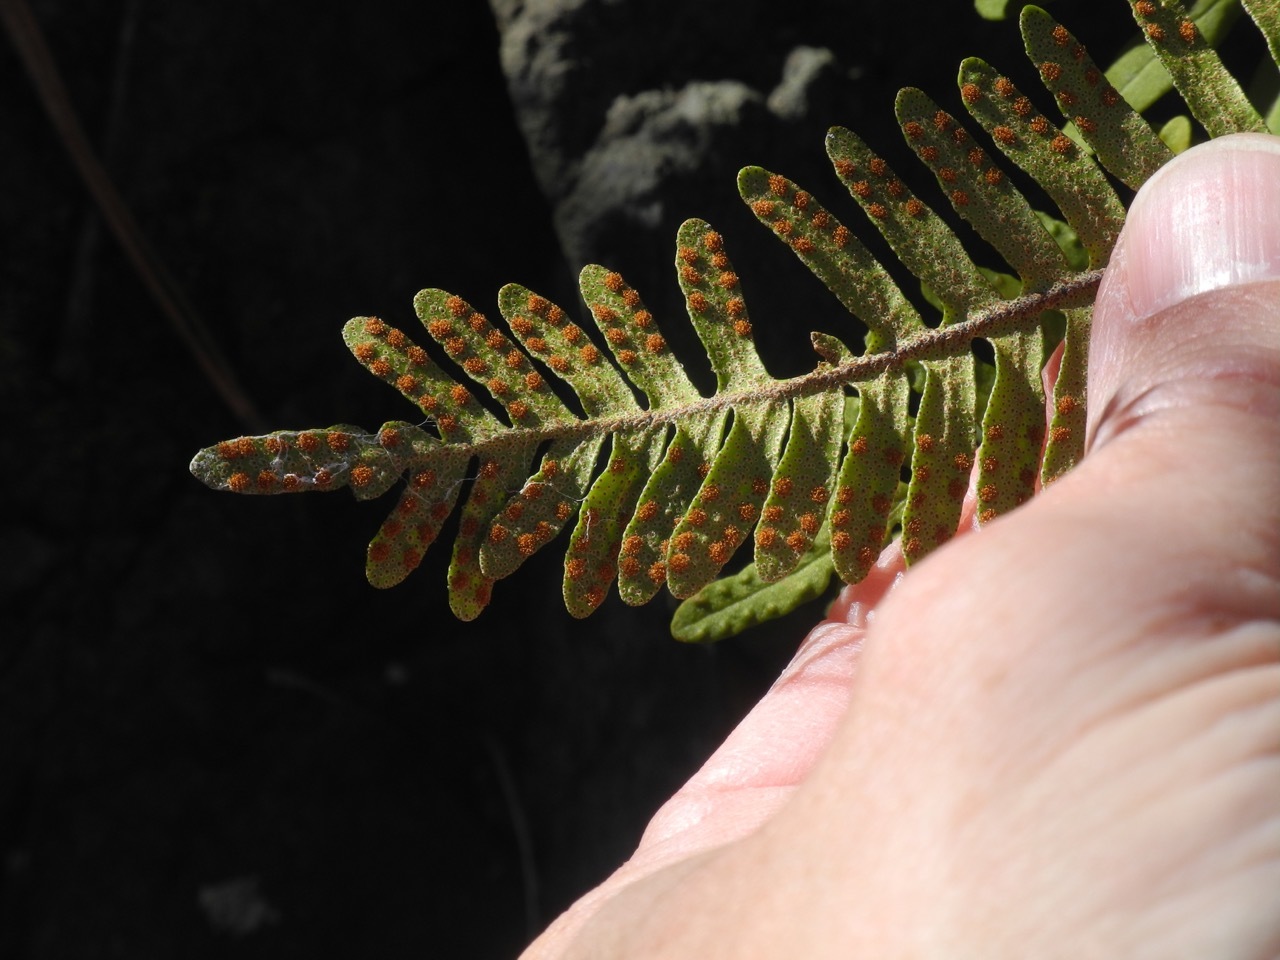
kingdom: Plantae
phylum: Tracheophyta
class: Polypodiopsida
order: Polypodiales
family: Polypodiaceae
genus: Pleopeltis
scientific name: Pleopeltis michauxiana
